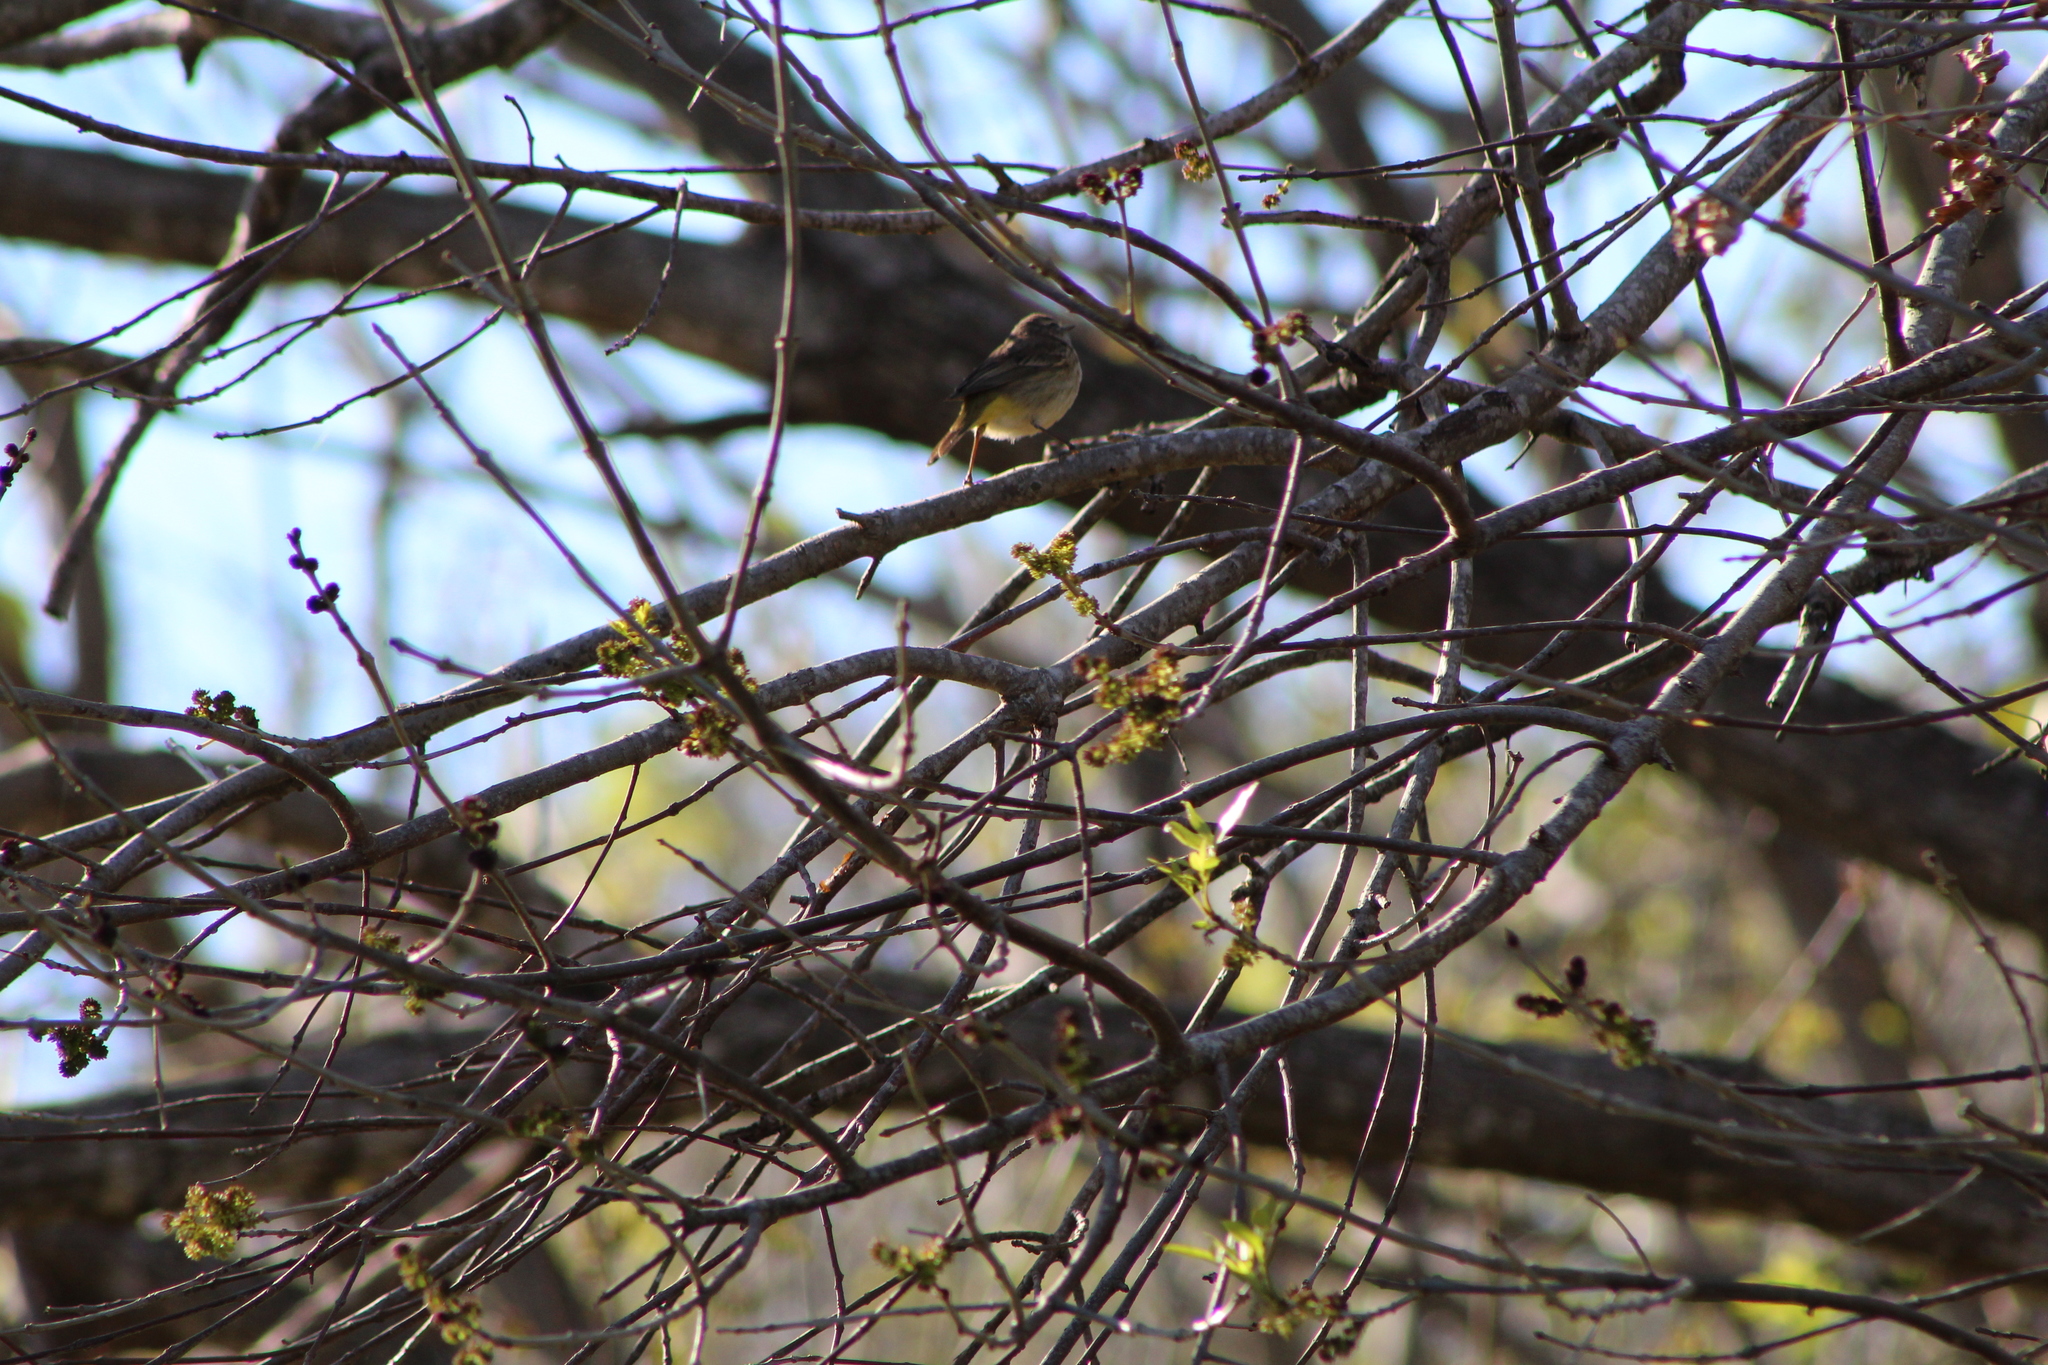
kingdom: Animalia
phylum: Chordata
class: Aves
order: Passeriformes
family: Parulidae
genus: Setophaga
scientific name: Setophaga palmarum
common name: Palm warbler
